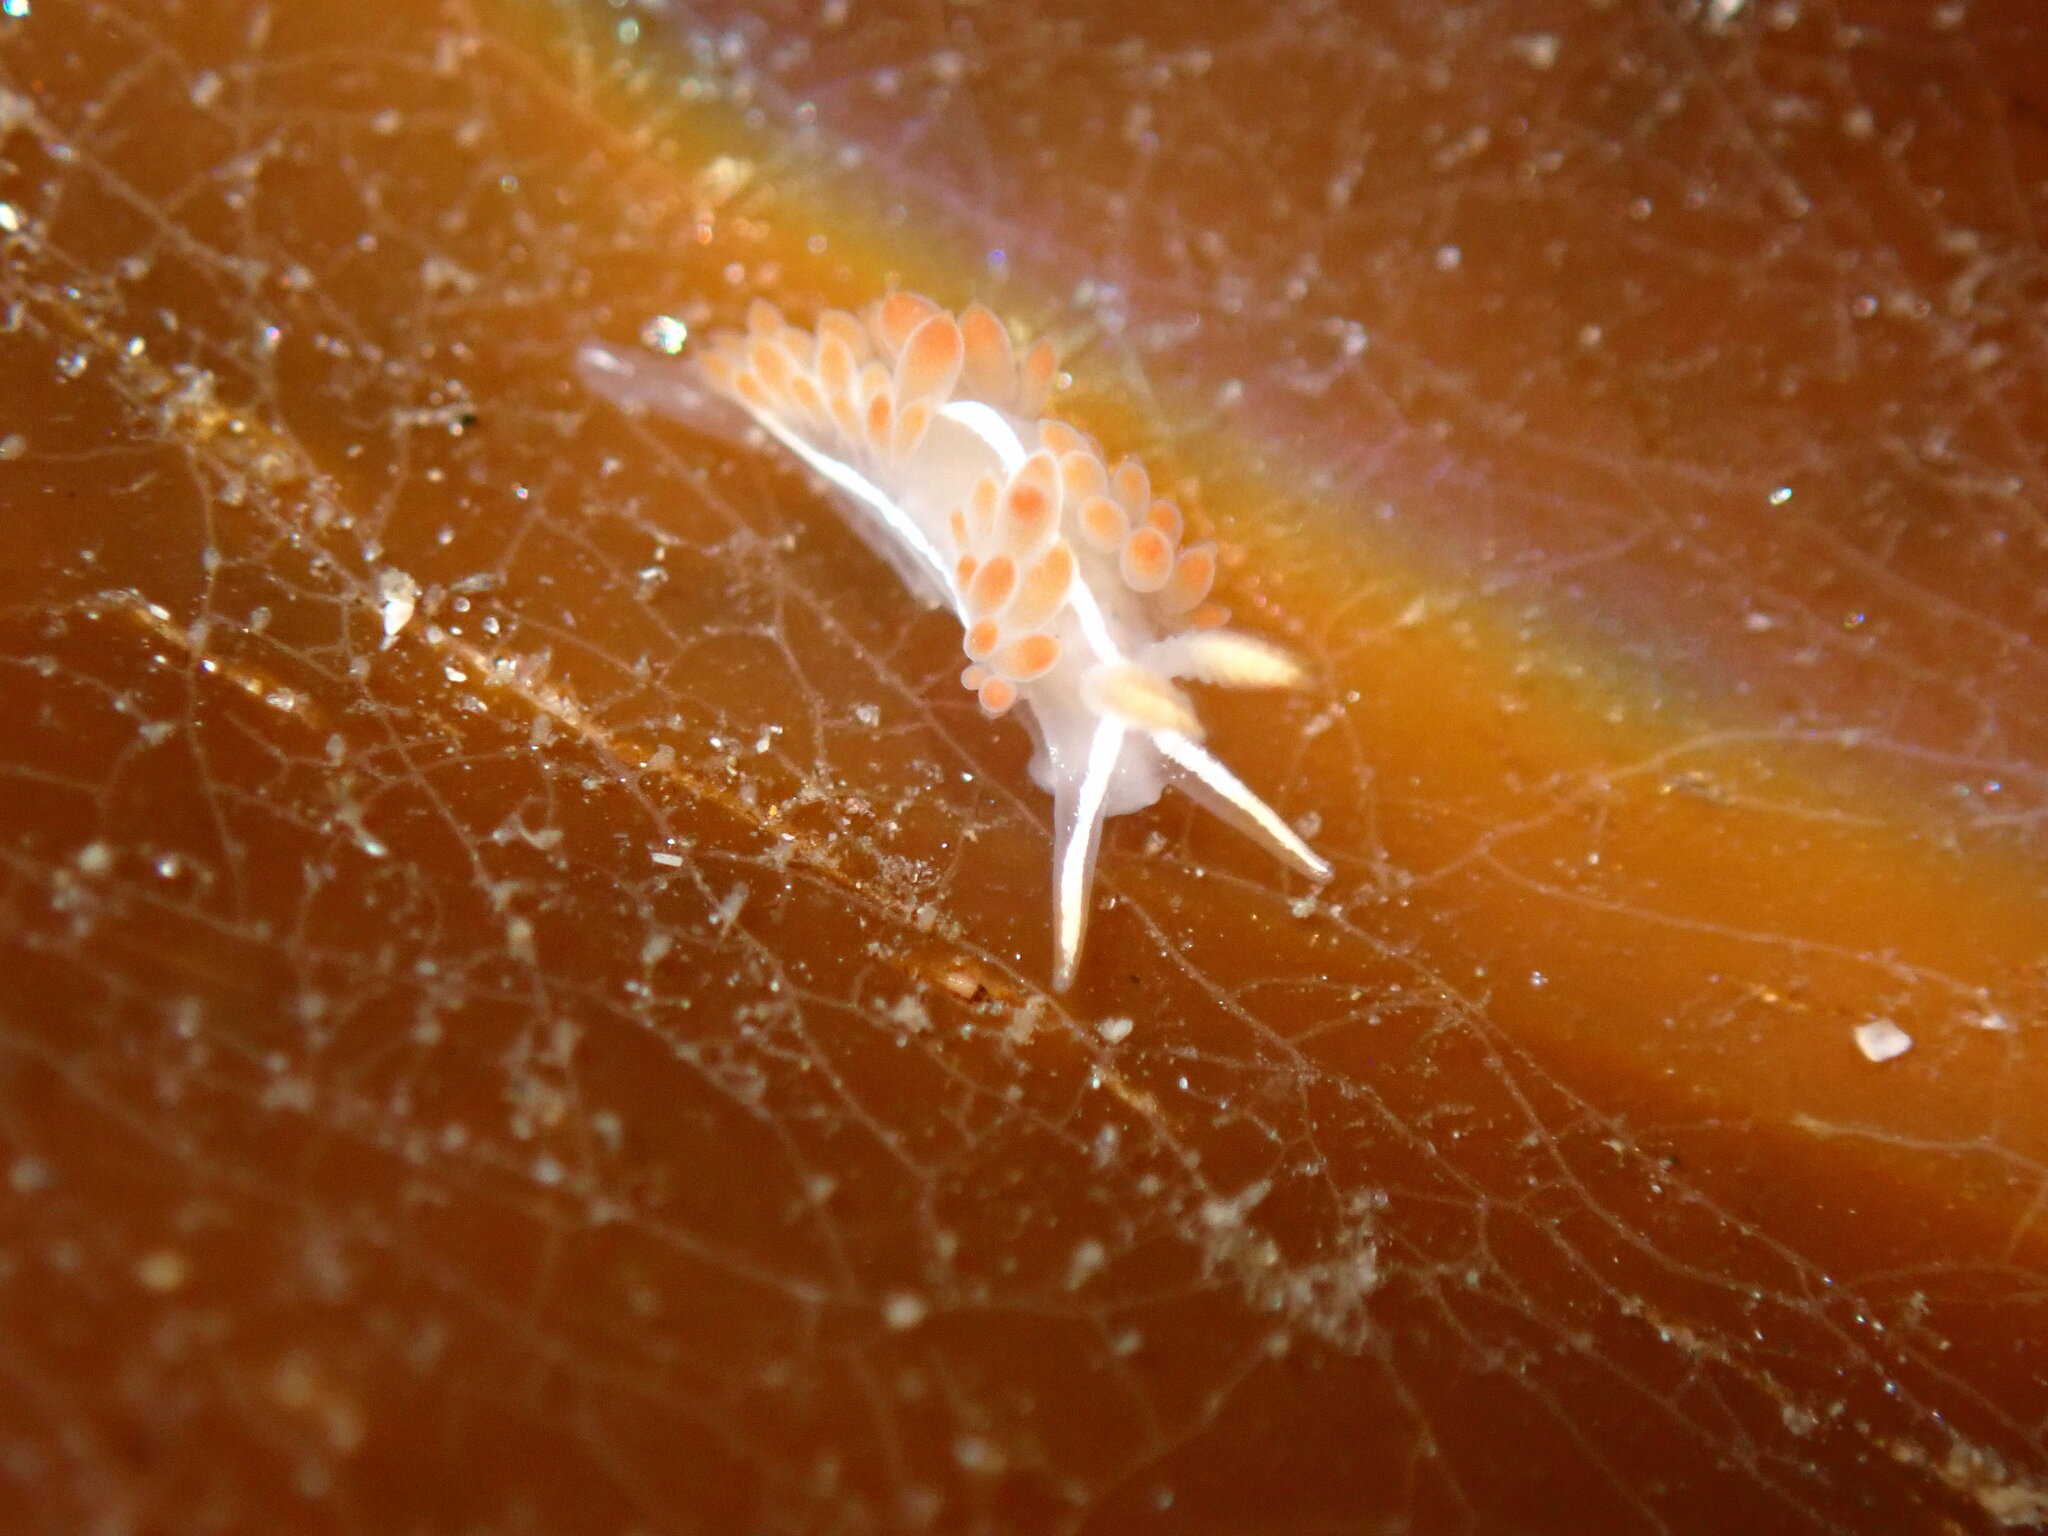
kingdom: Animalia
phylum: Mollusca
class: Gastropoda
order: Nudibranchia
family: Coryphellidae
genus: Coryphella
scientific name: Coryphella trilineata
